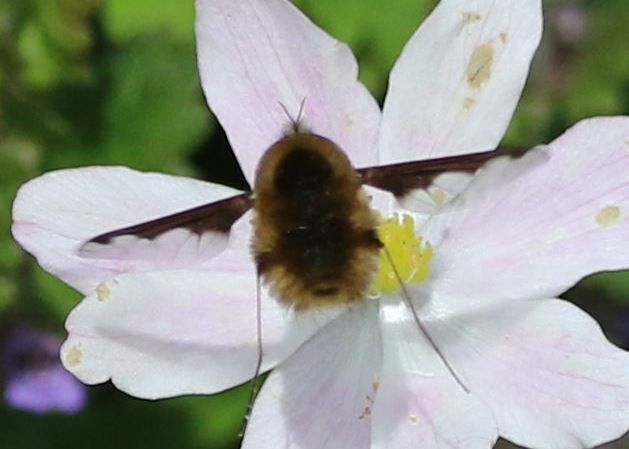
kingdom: Animalia
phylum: Arthropoda
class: Insecta
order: Diptera
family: Bombyliidae
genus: Bombylius
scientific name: Bombylius major
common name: Bee fly
